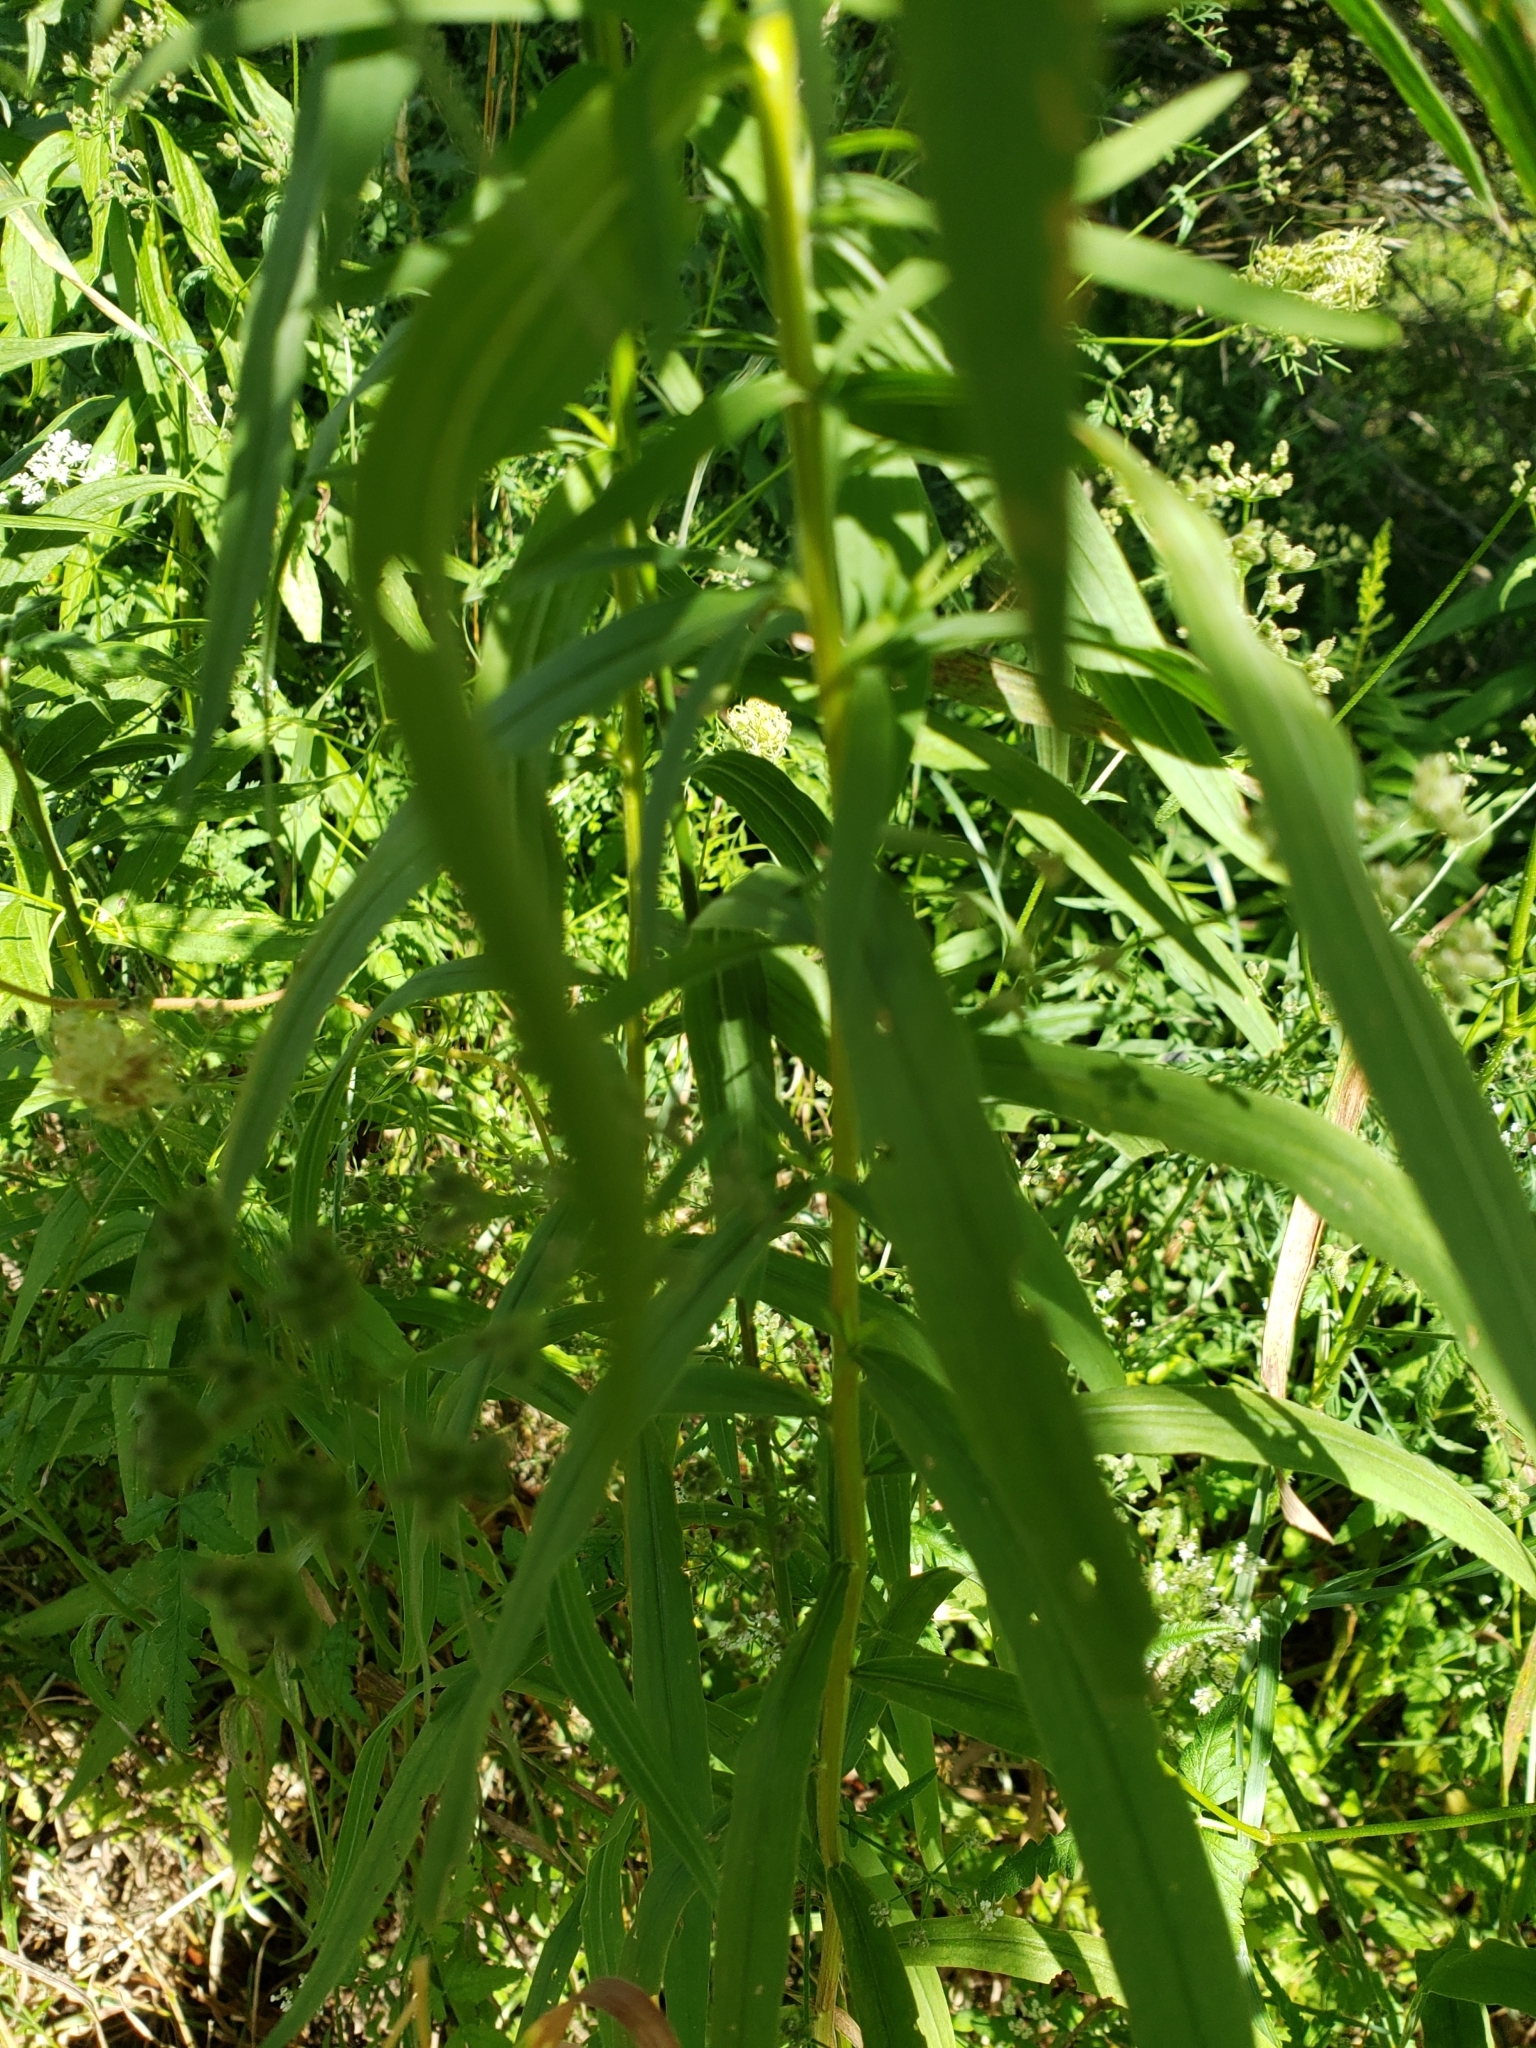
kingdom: Plantae
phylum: Tracheophyta
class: Magnoliopsida
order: Asterales
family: Asteraceae
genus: Euthamia
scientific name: Euthamia graminifolia
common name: Common goldentop
